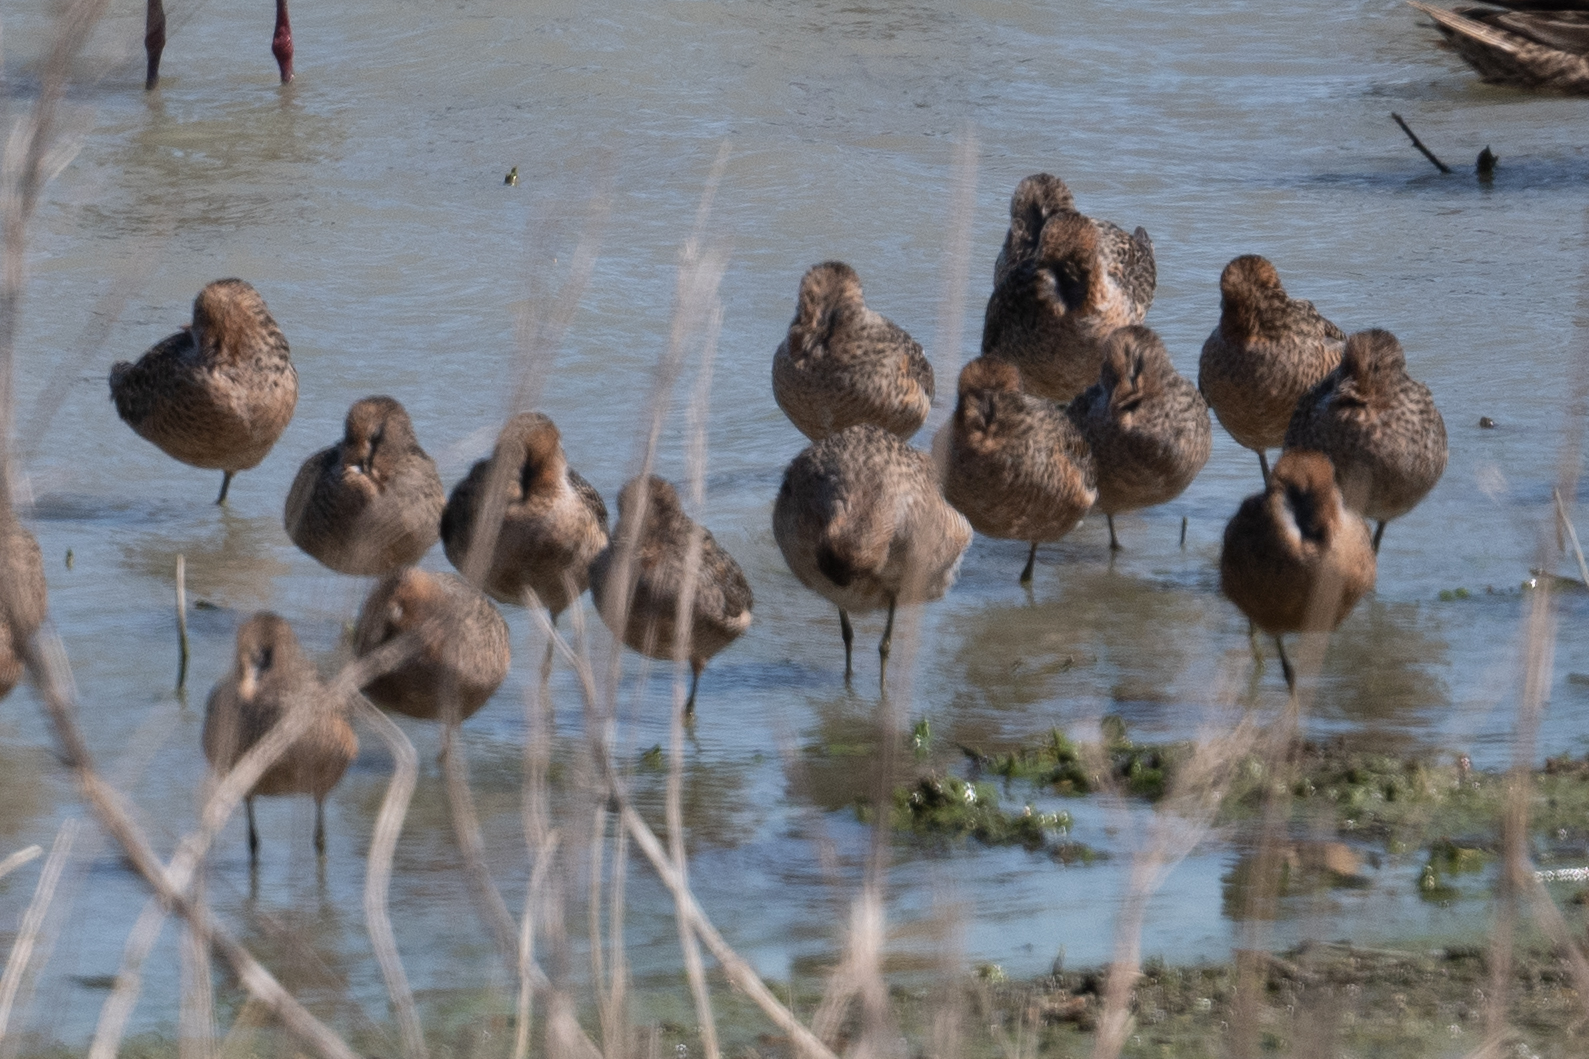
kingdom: Animalia
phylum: Chordata
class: Aves
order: Charadriiformes
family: Scolopacidae
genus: Limnodromus
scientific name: Limnodromus scolopaceus
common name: Long-billed dowitcher
